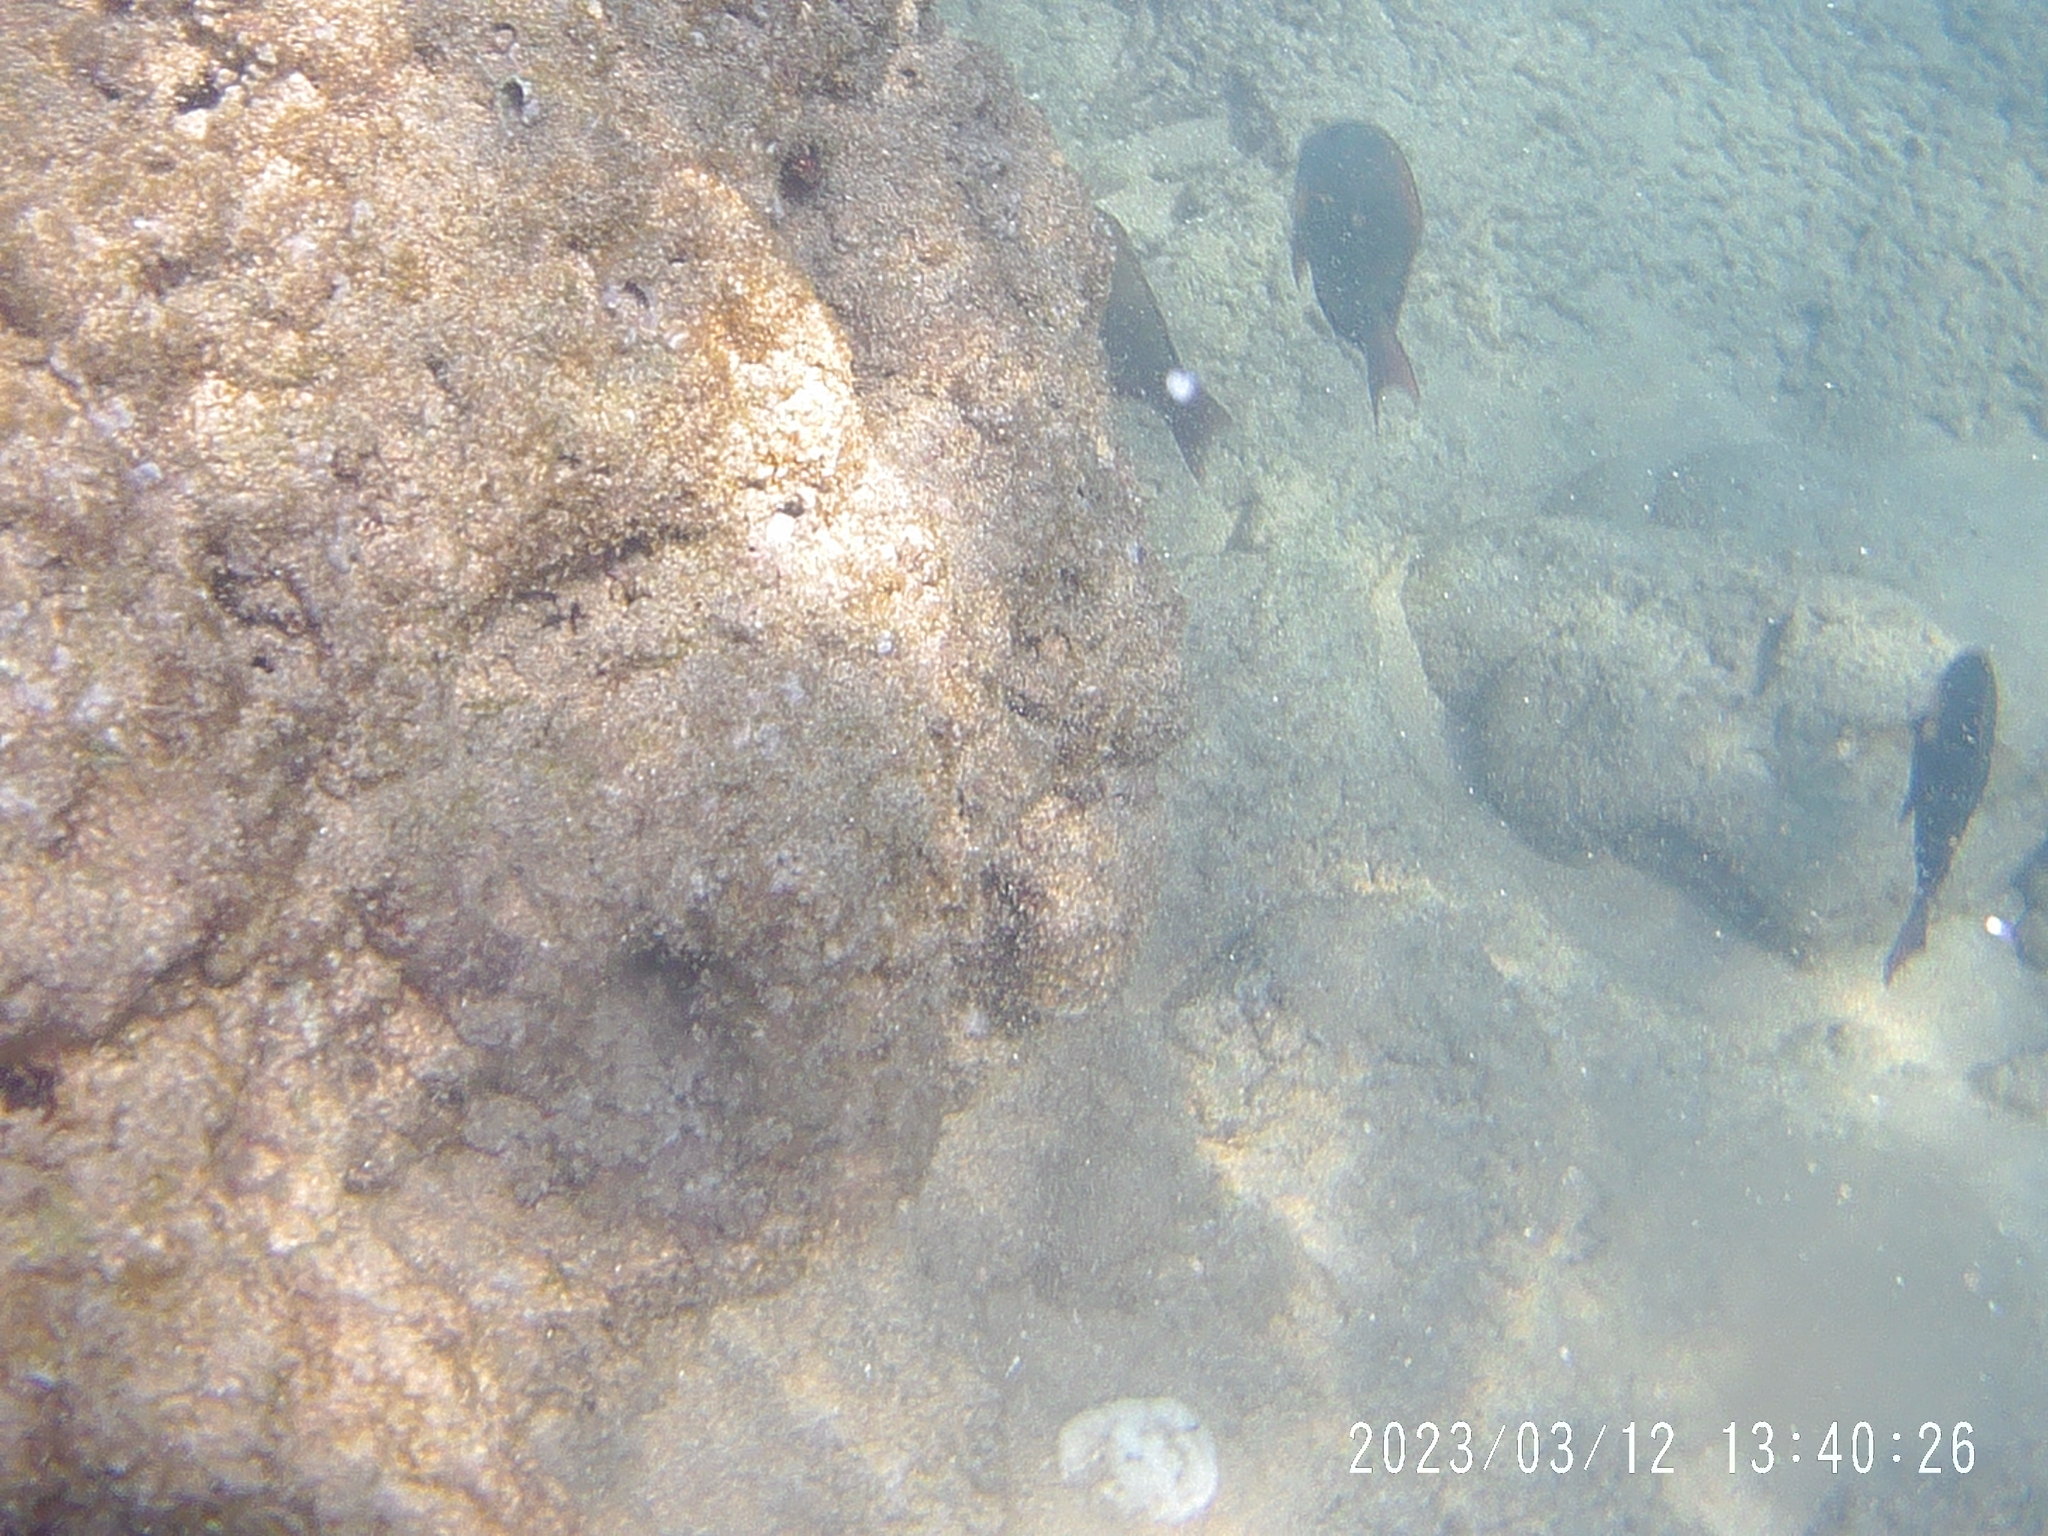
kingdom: Animalia
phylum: Chordata
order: Perciformes
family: Acanthuridae
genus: Acanthurus
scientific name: Acanthurus nigrofuscus
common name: Blackspot surgeonfish
